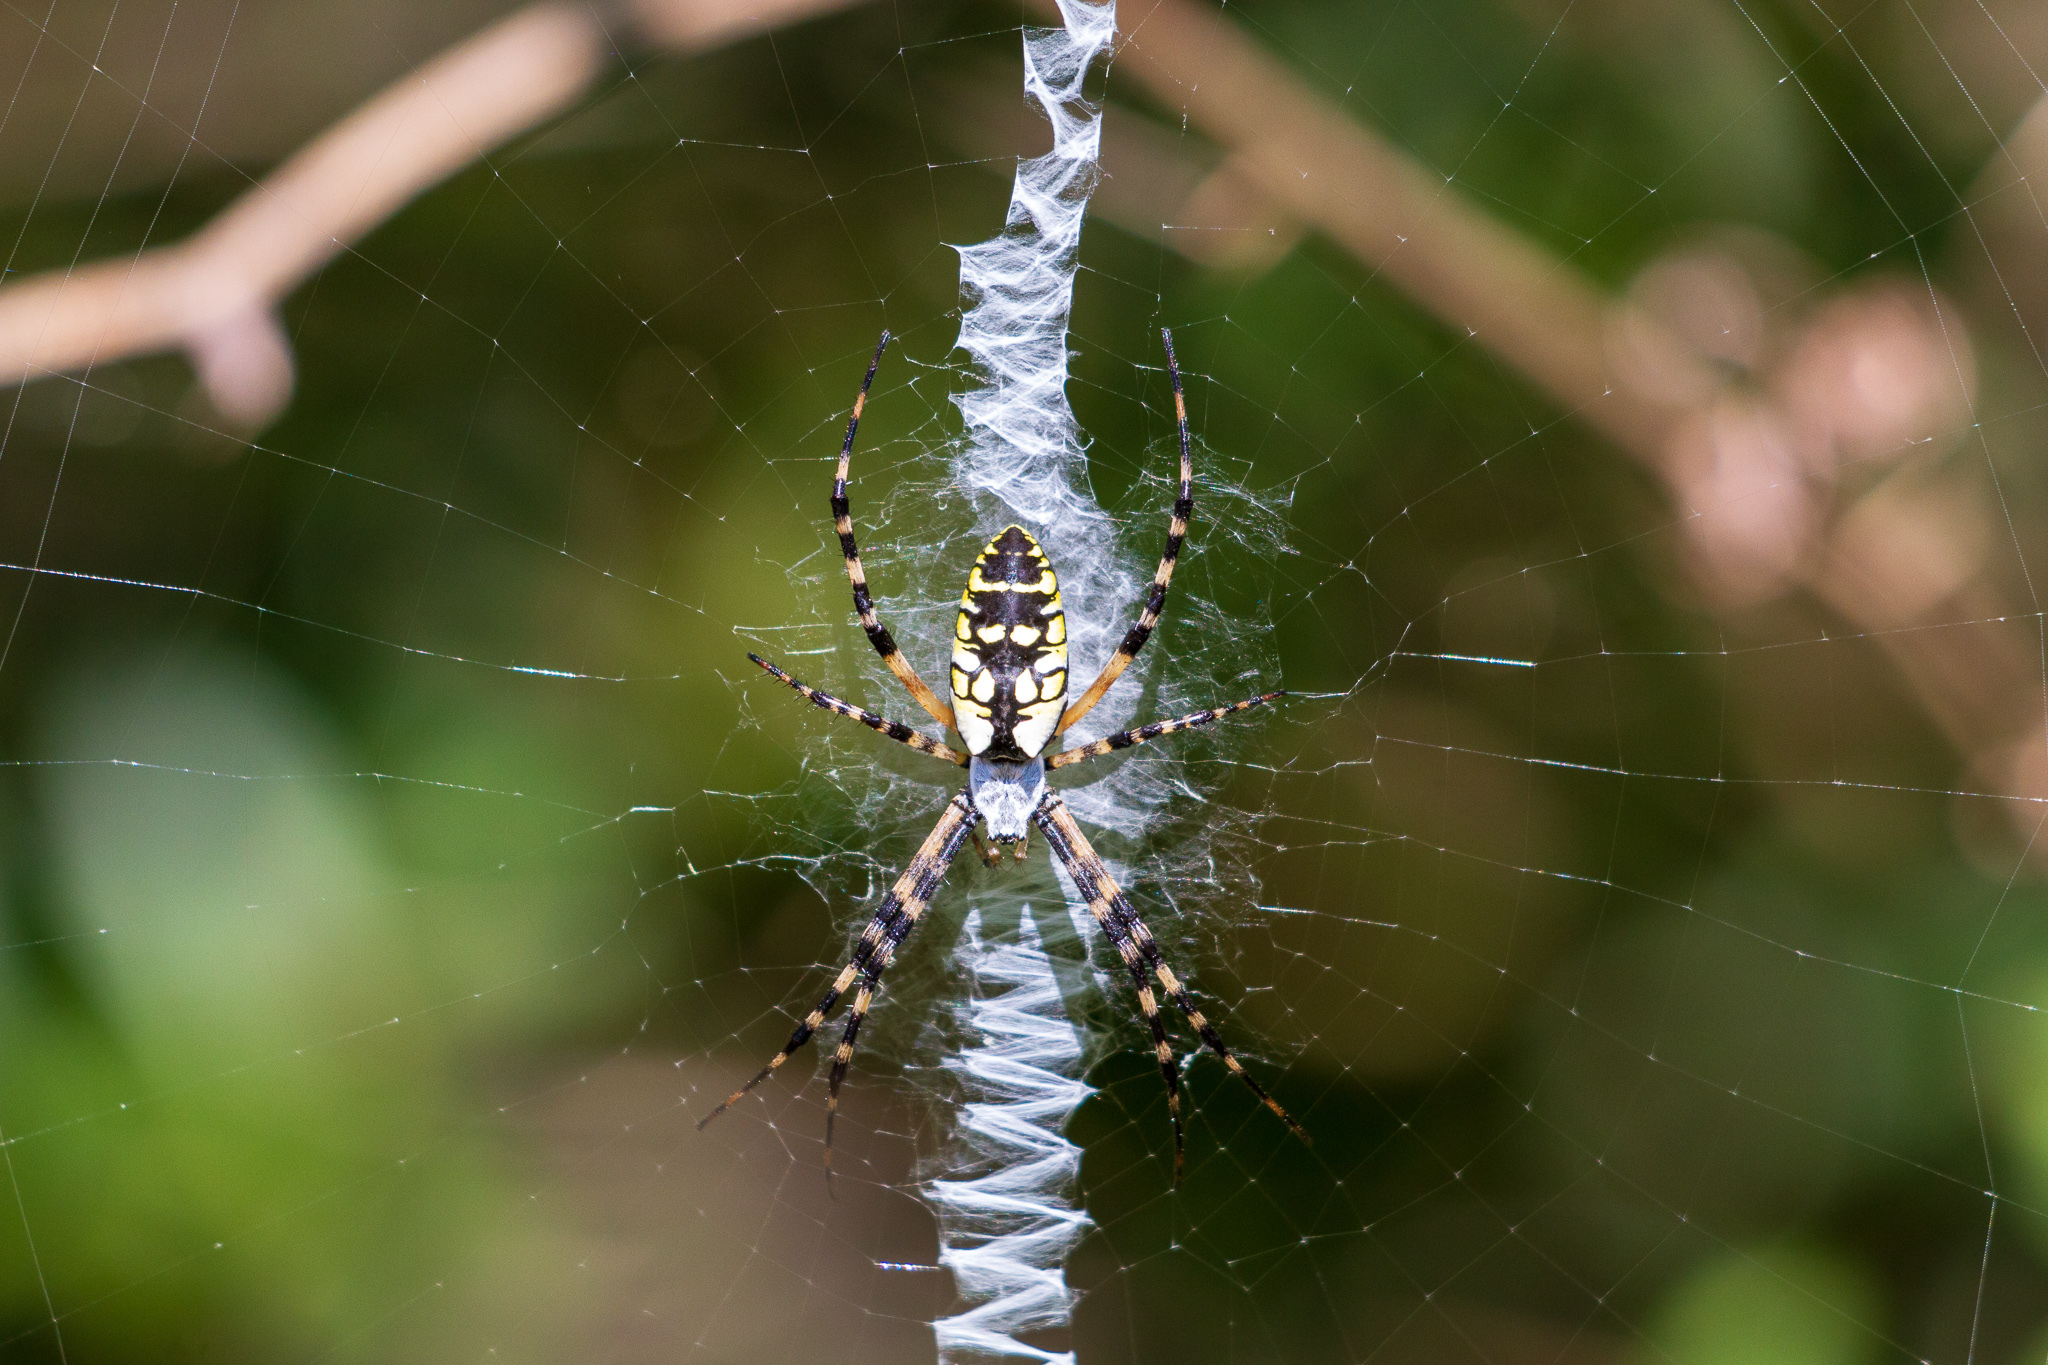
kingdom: Animalia
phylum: Arthropoda
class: Arachnida
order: Araneae
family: Araneidae
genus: Argiope
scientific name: Argiope aurantia
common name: Orb weavers
